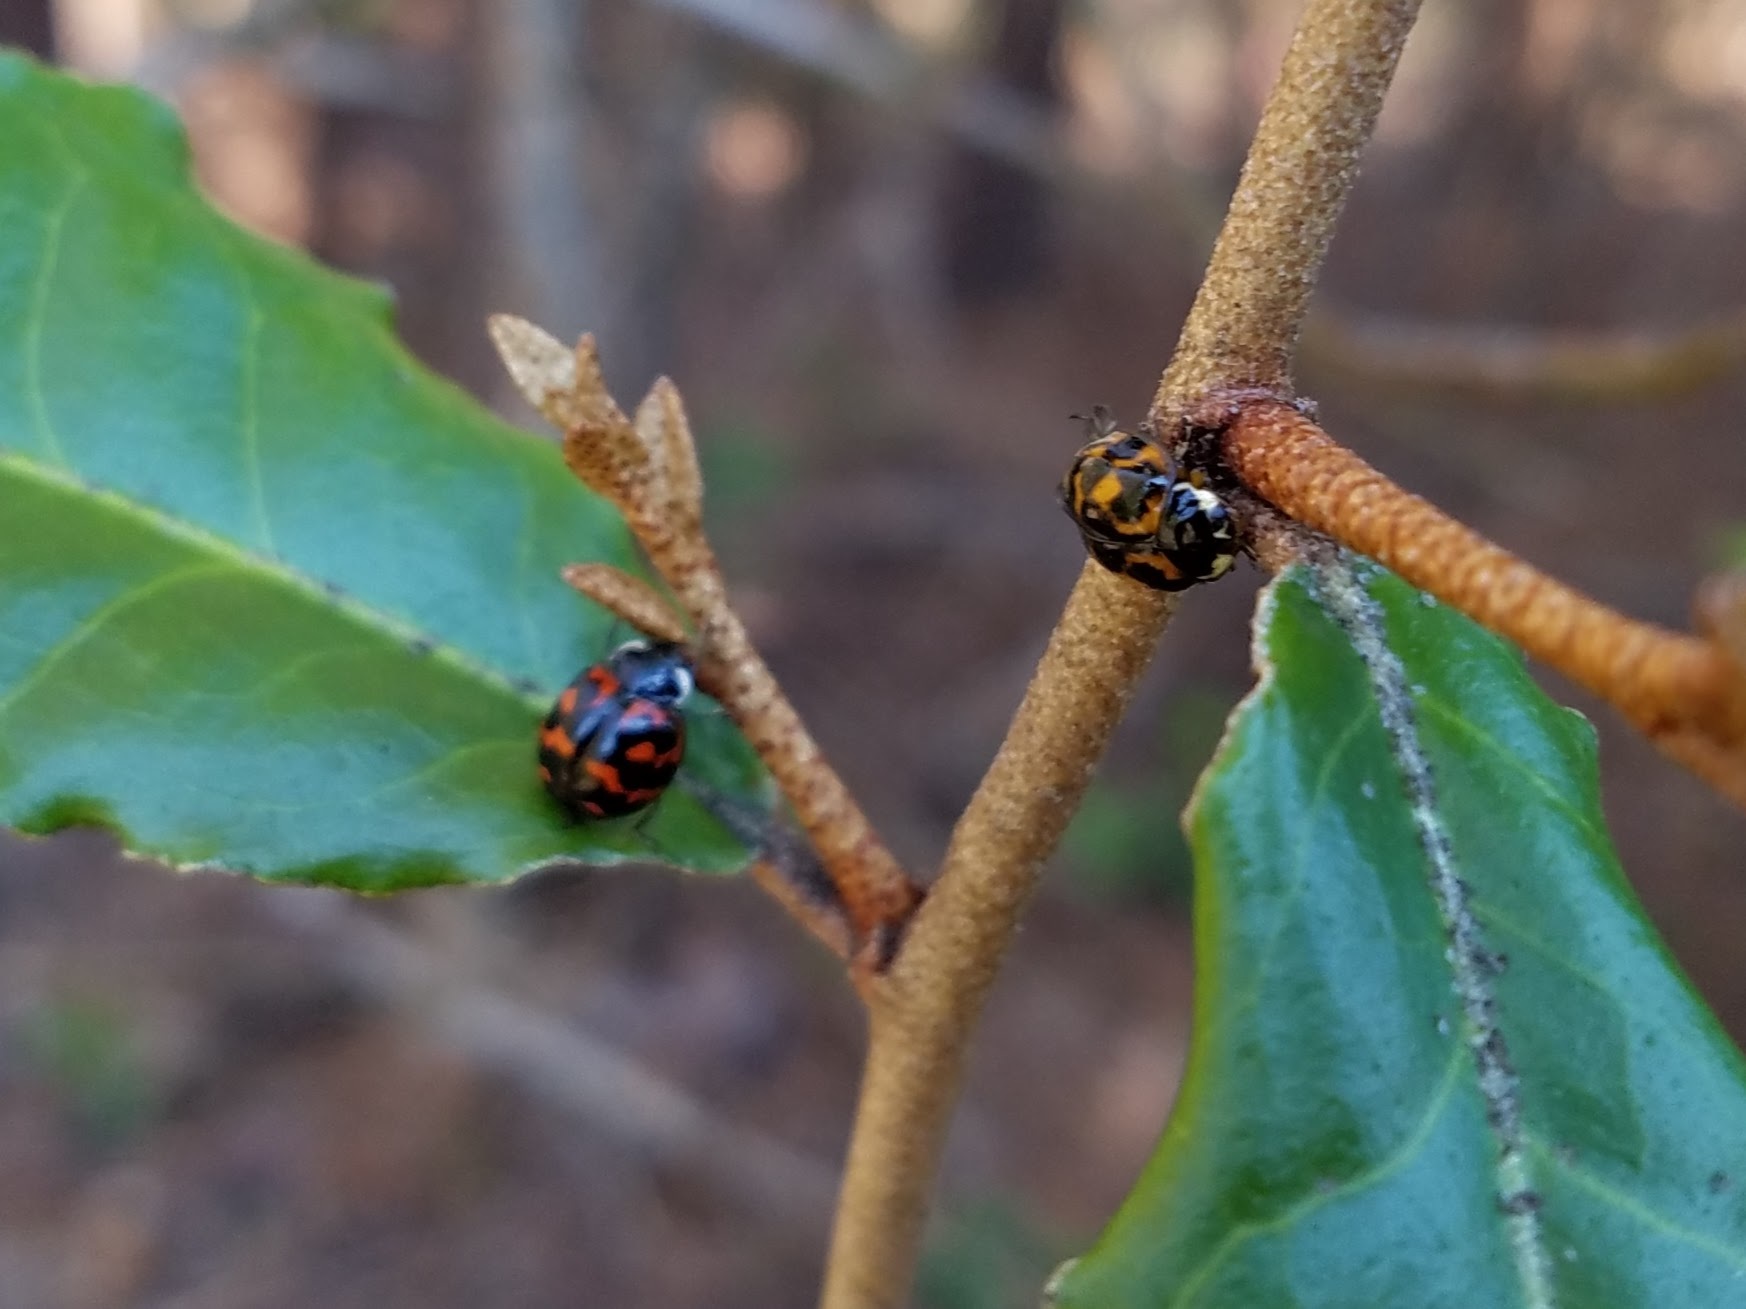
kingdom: Animalia
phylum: Arthropoda
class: Insecta
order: Coleoptera
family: Coccinellidae
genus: Harmonia
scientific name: Harmonia axyridis
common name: Harlequin ladybird
